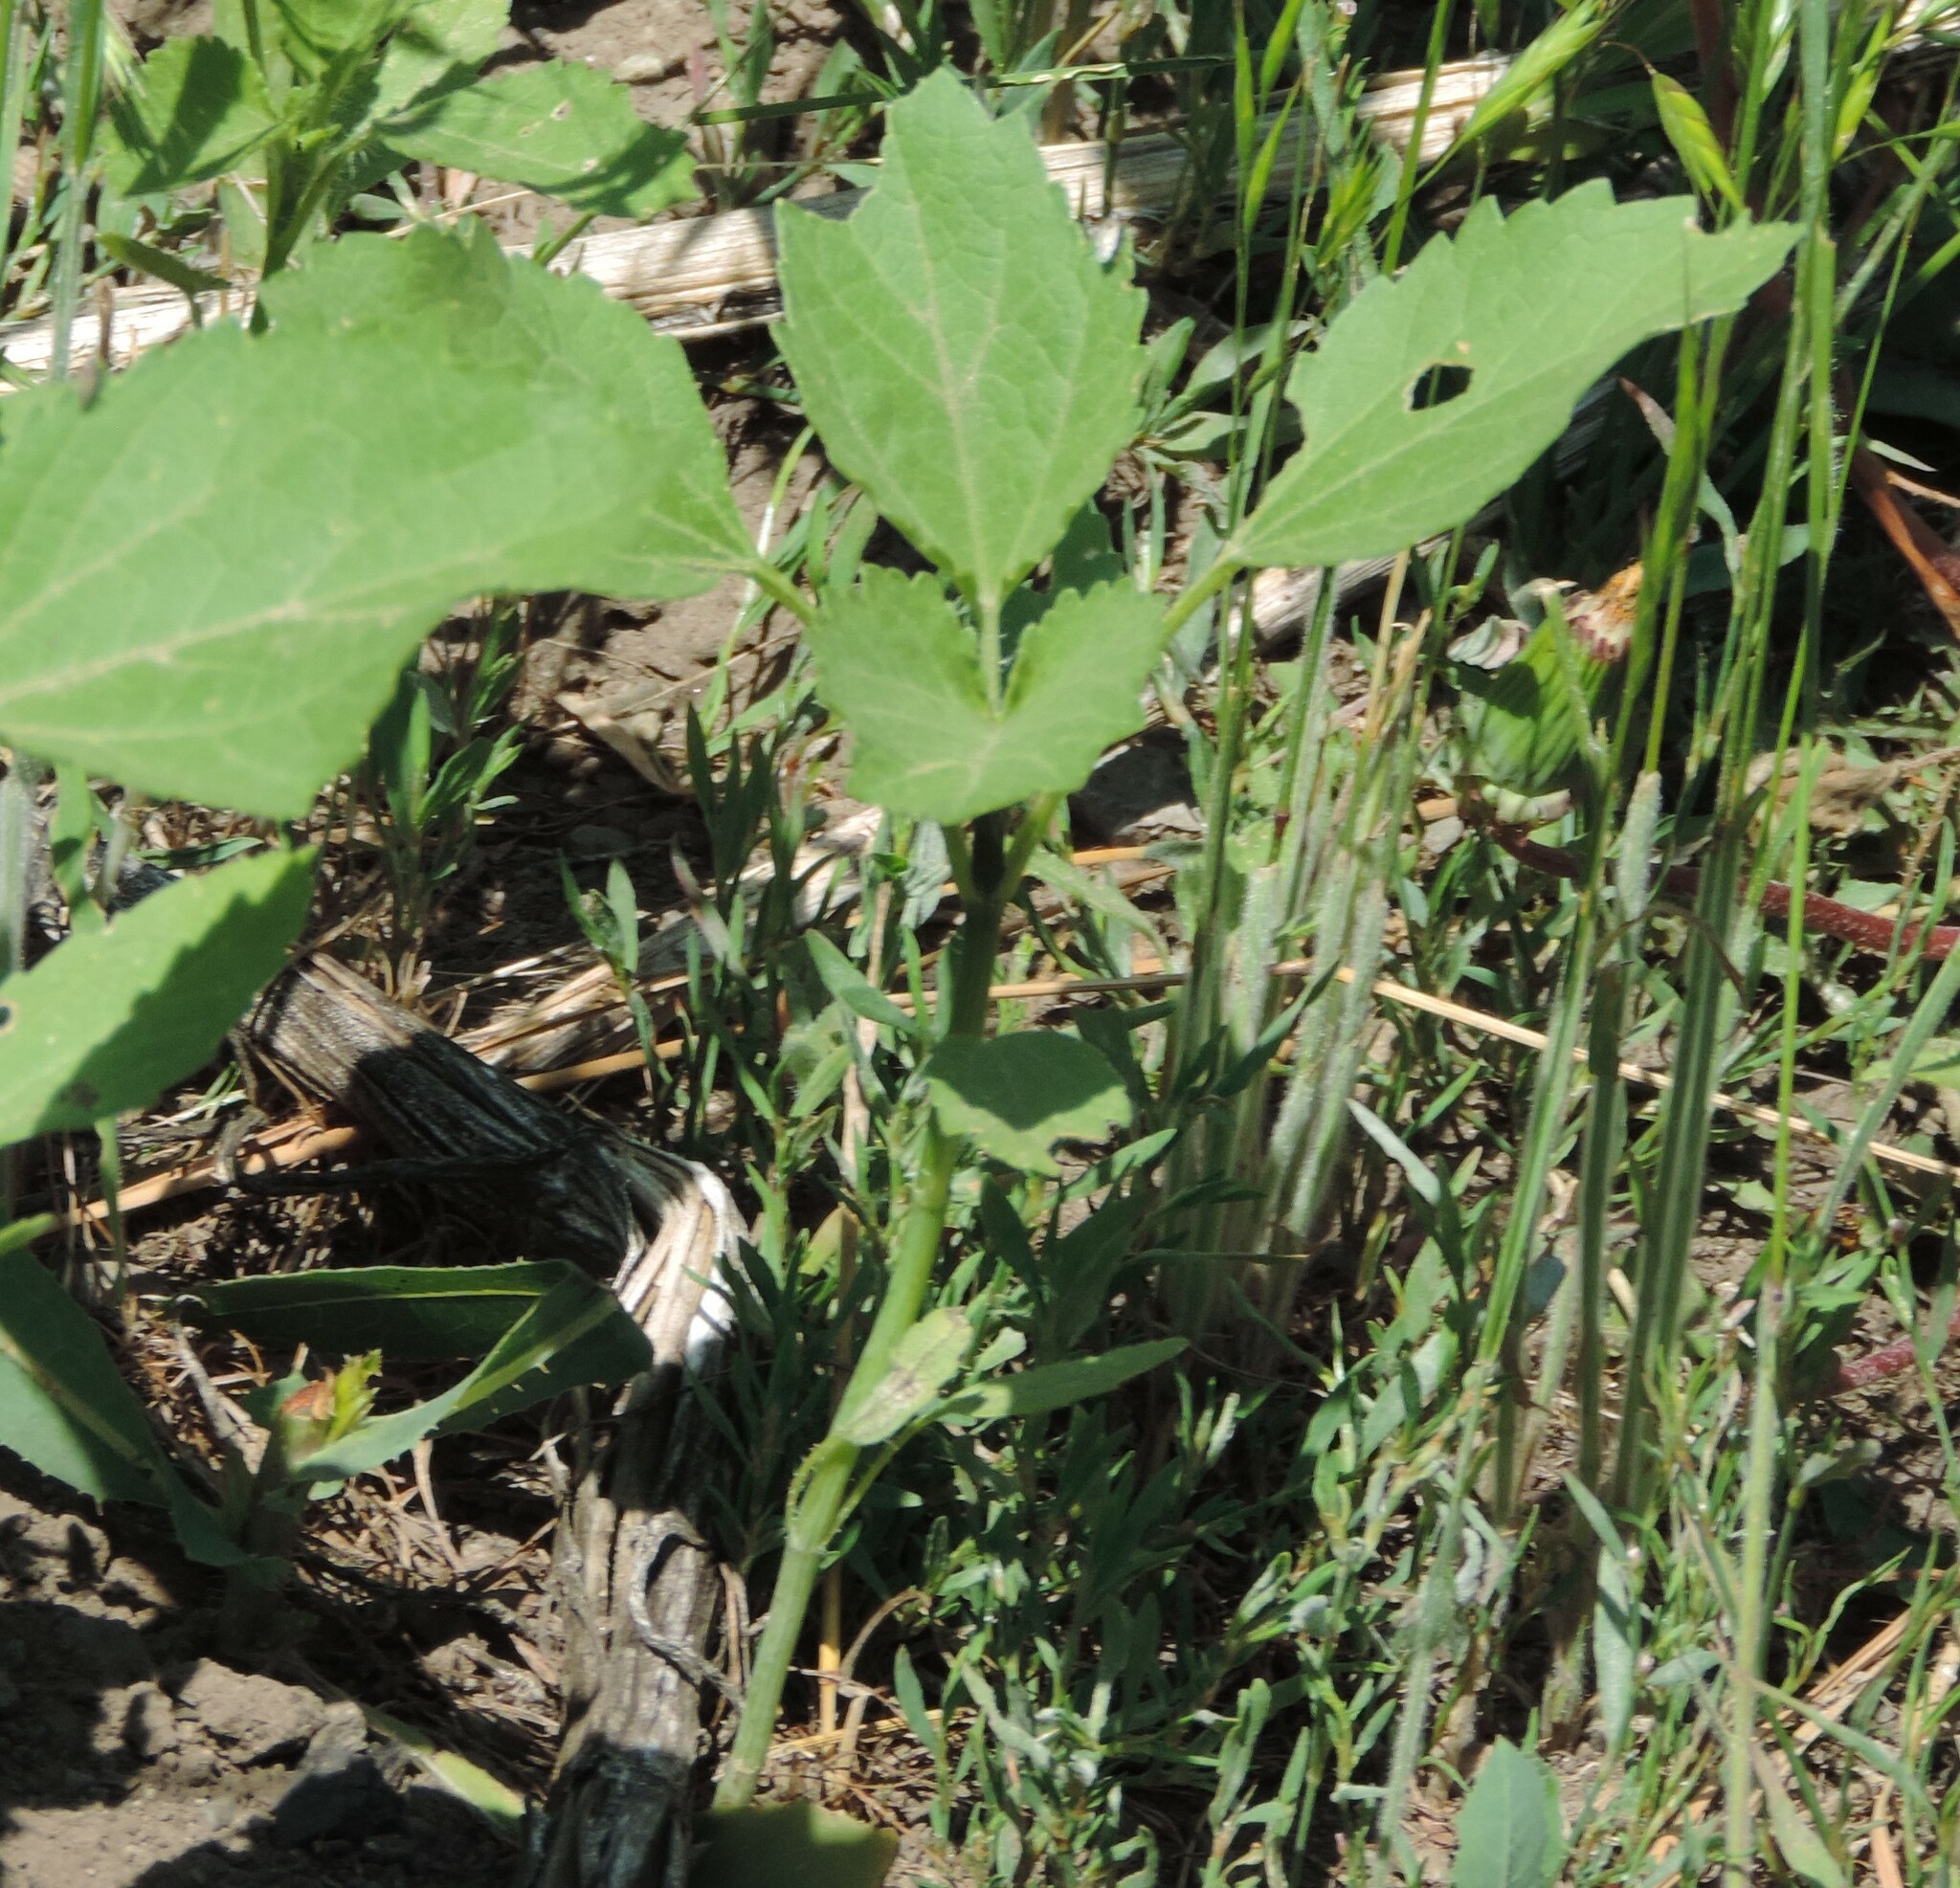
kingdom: Plantae
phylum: Tracheophyta
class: Magnoliopsida
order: Asterales
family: Asteraceae
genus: Cyclachaena
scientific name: Cyclachaena xanthiifolia
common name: Giant sumpweed
